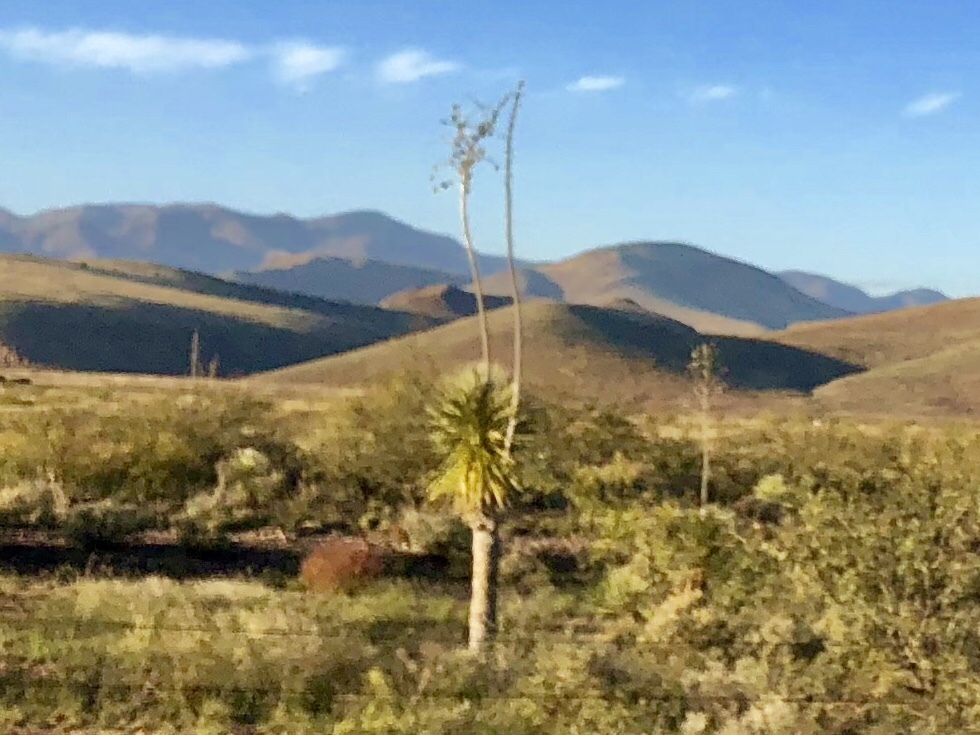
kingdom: Plantae
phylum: Tracheophyta
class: Liliopsida
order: Asparagales
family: Asparagaceae
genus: Yucca
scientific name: Yucca elata
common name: Palmella
